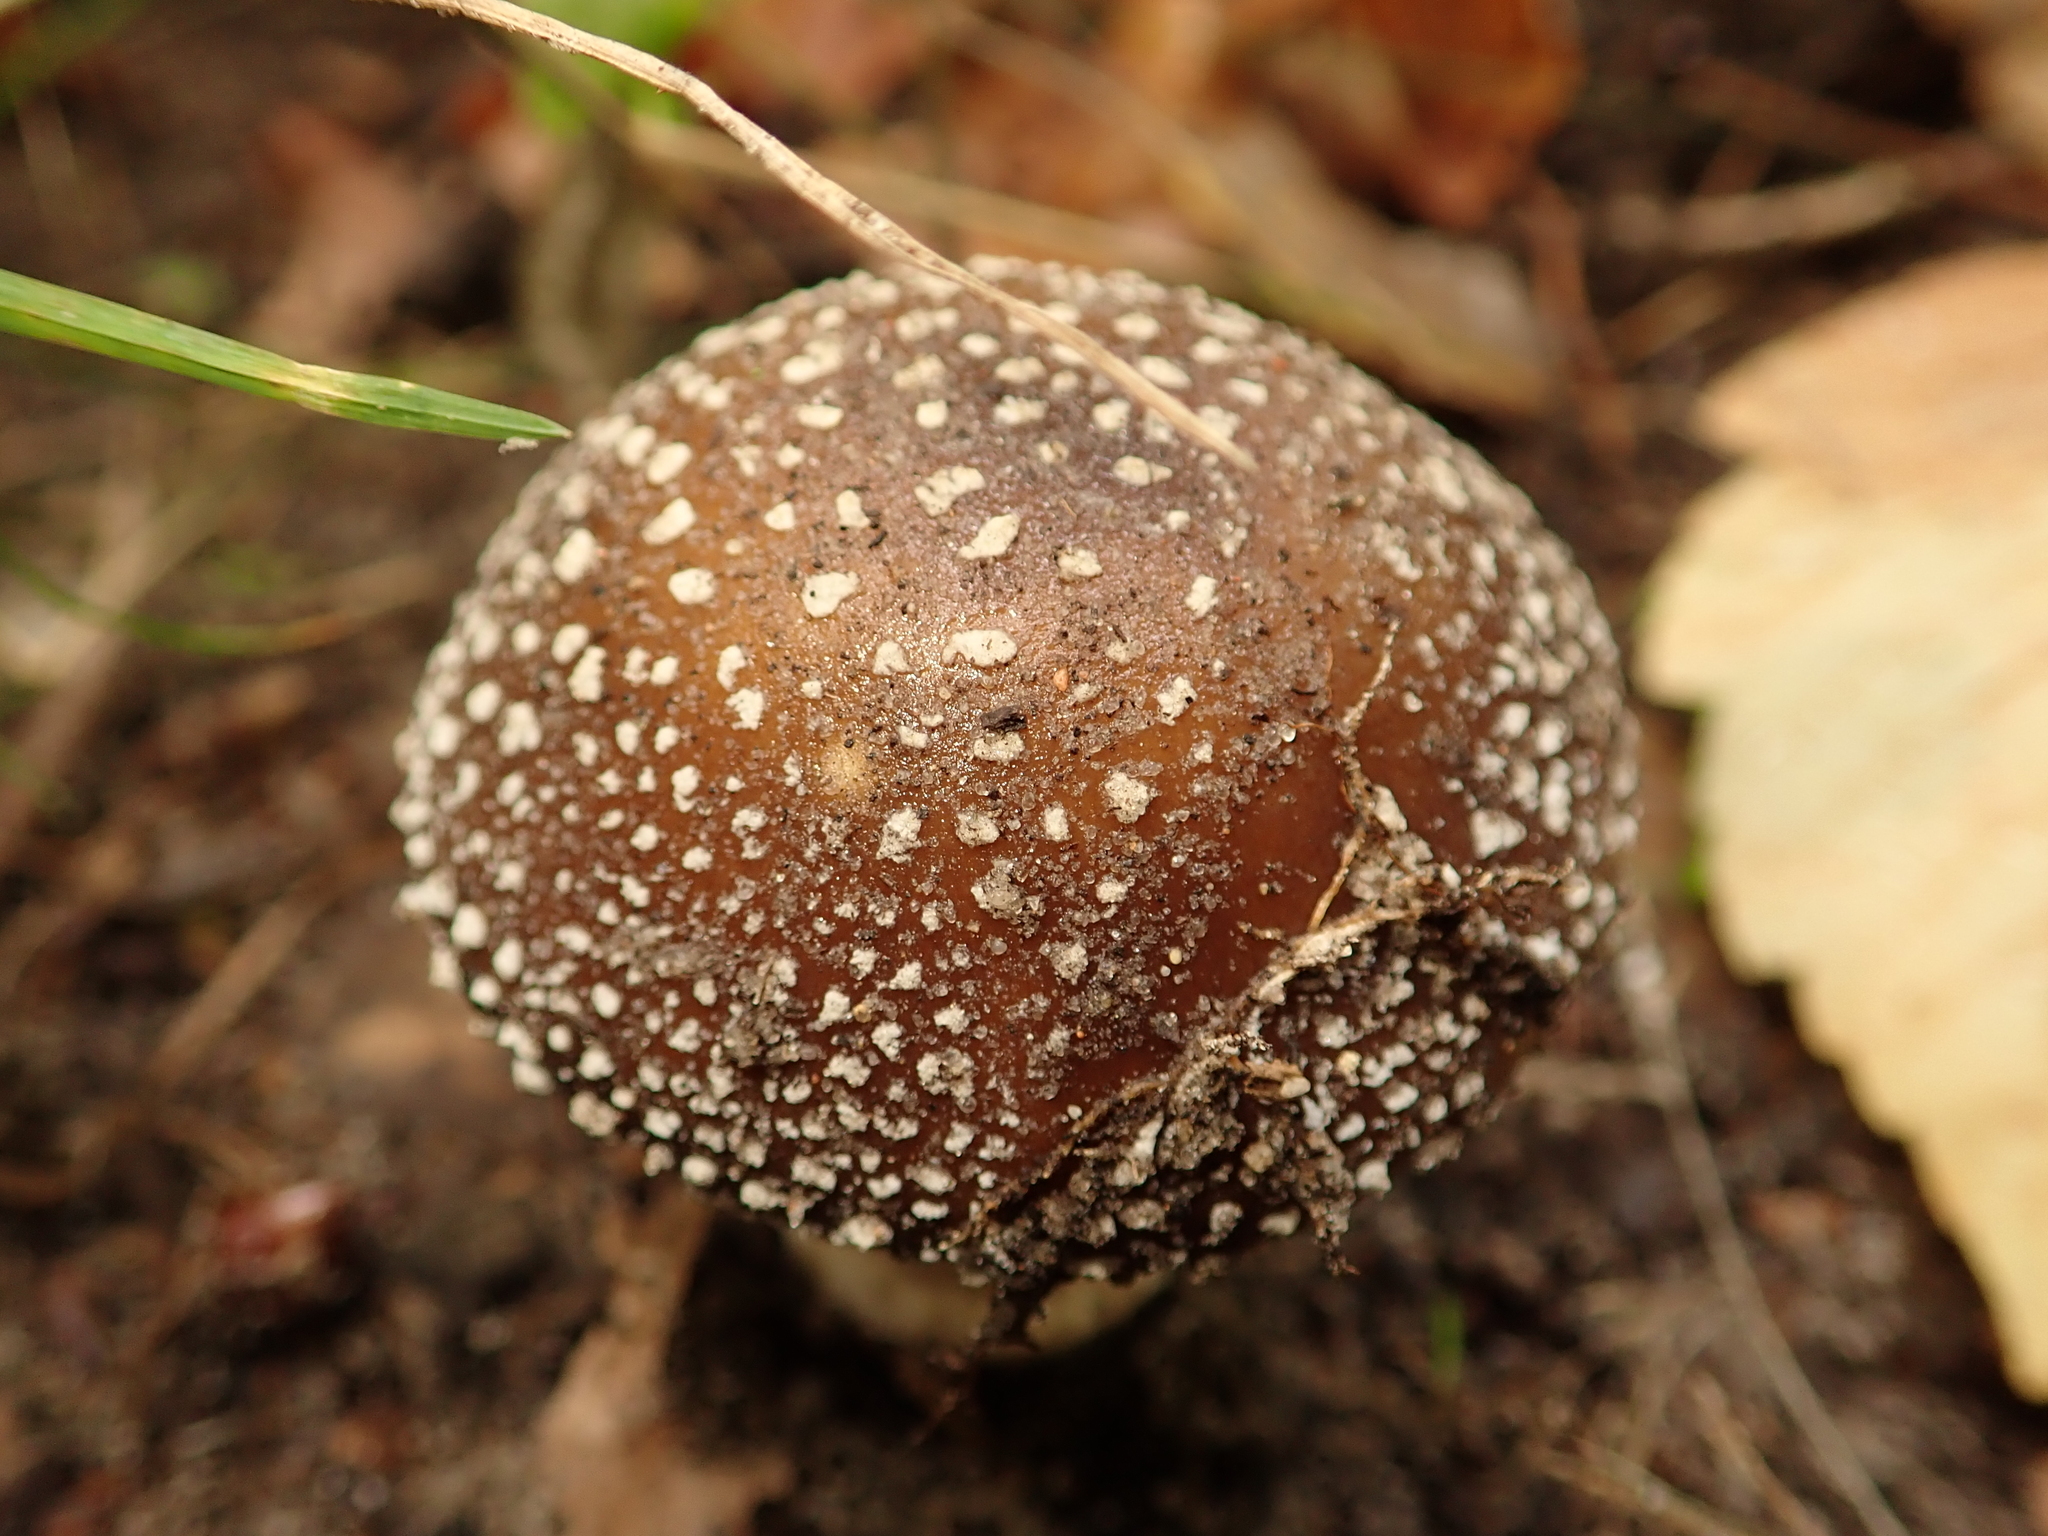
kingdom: Fungi
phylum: Basidiomycota
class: Agaricomycetes
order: Agaricales
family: Amanitaceae
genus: Amanita
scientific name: Amanita pantherina
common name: Panthercap
